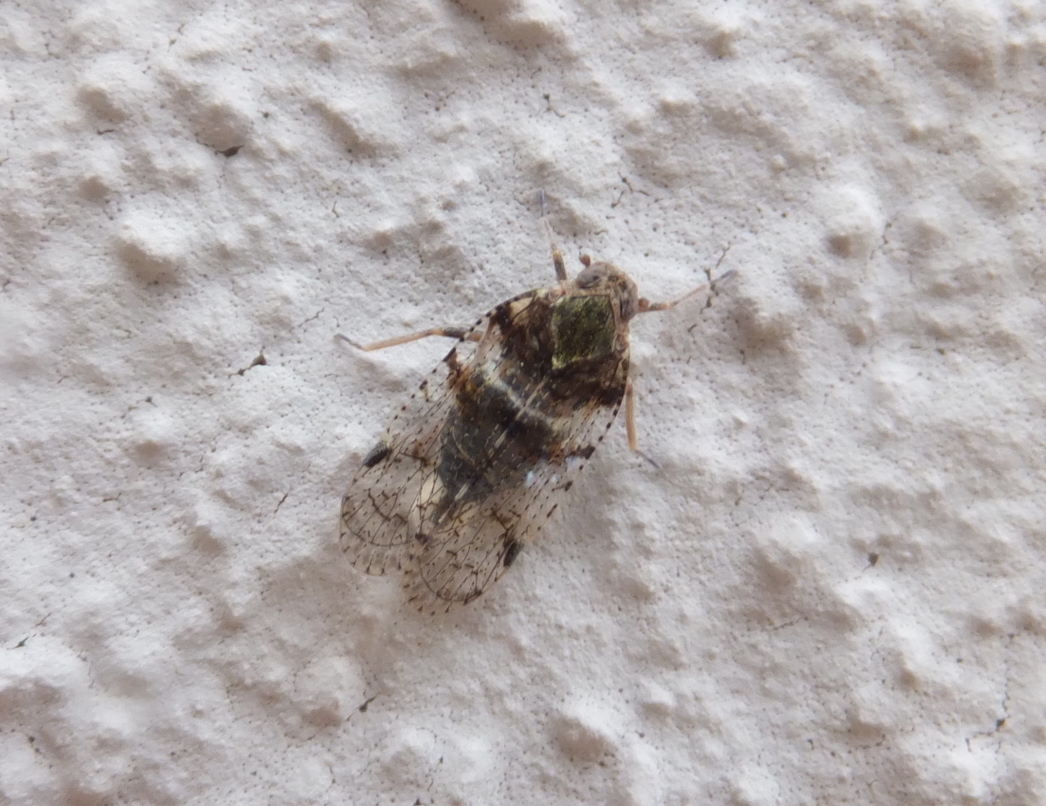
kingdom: Animalia
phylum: Arthropoda
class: Insecta
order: Hemiptera
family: Cixiidae
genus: Cixius
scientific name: Cixius nervosus
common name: Common lacehopper
